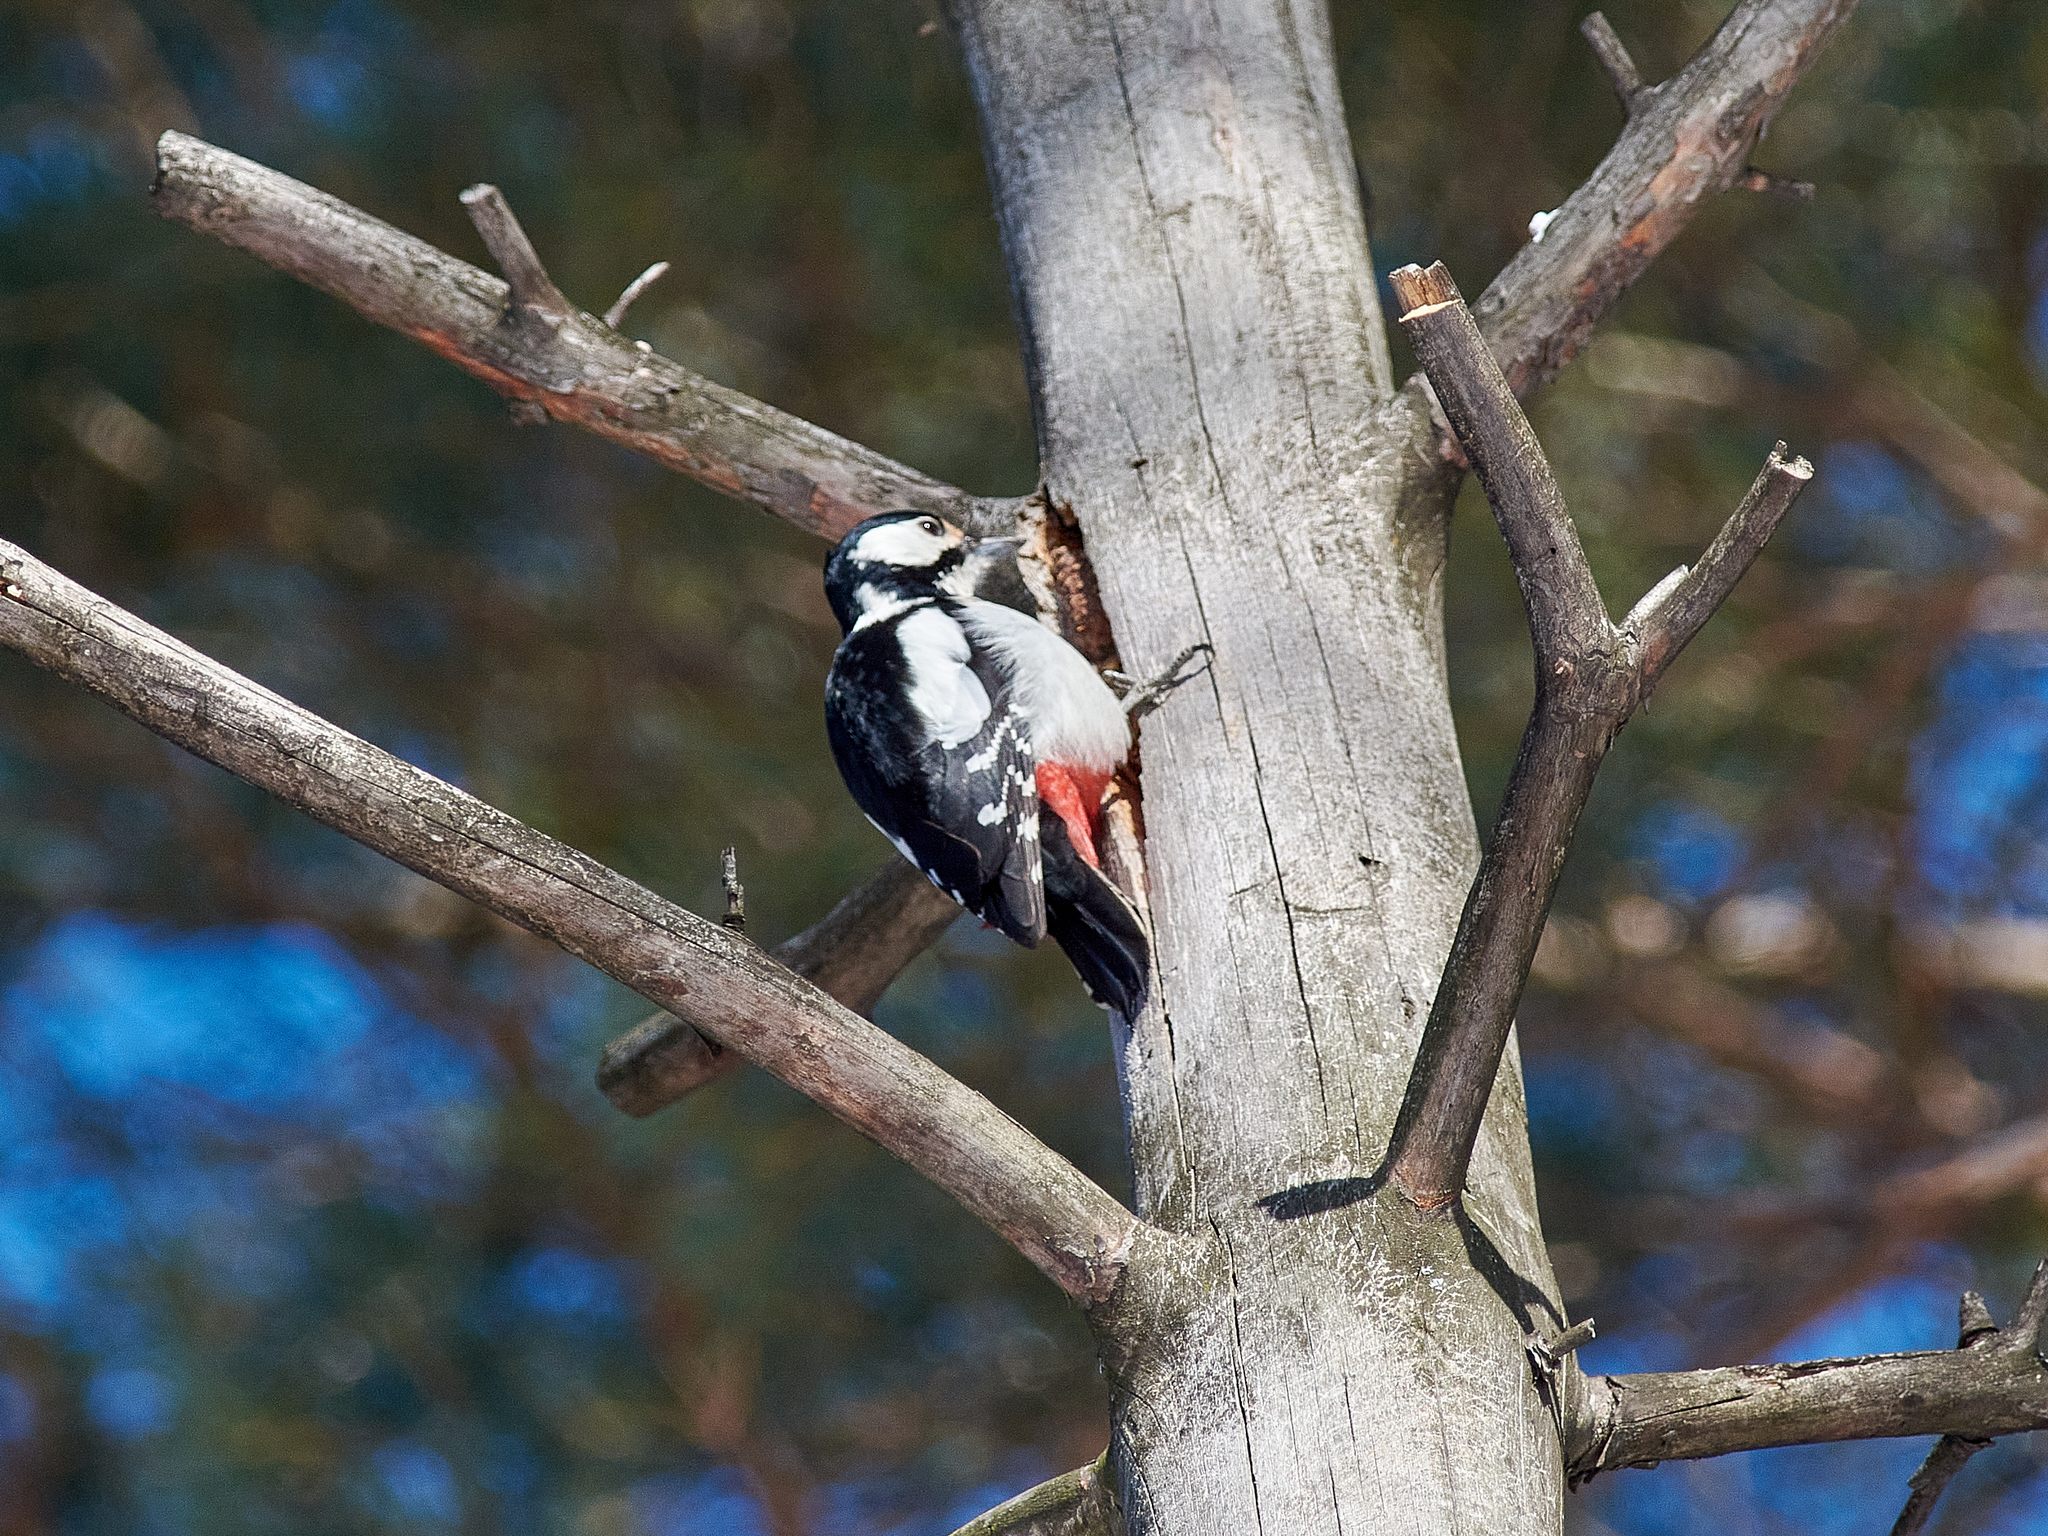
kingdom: Animalia
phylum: Chordata
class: Aves
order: Piciformes
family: Picidae
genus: Dendrocopos
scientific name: Dendrocopos major
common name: Great spotted woodpecker
